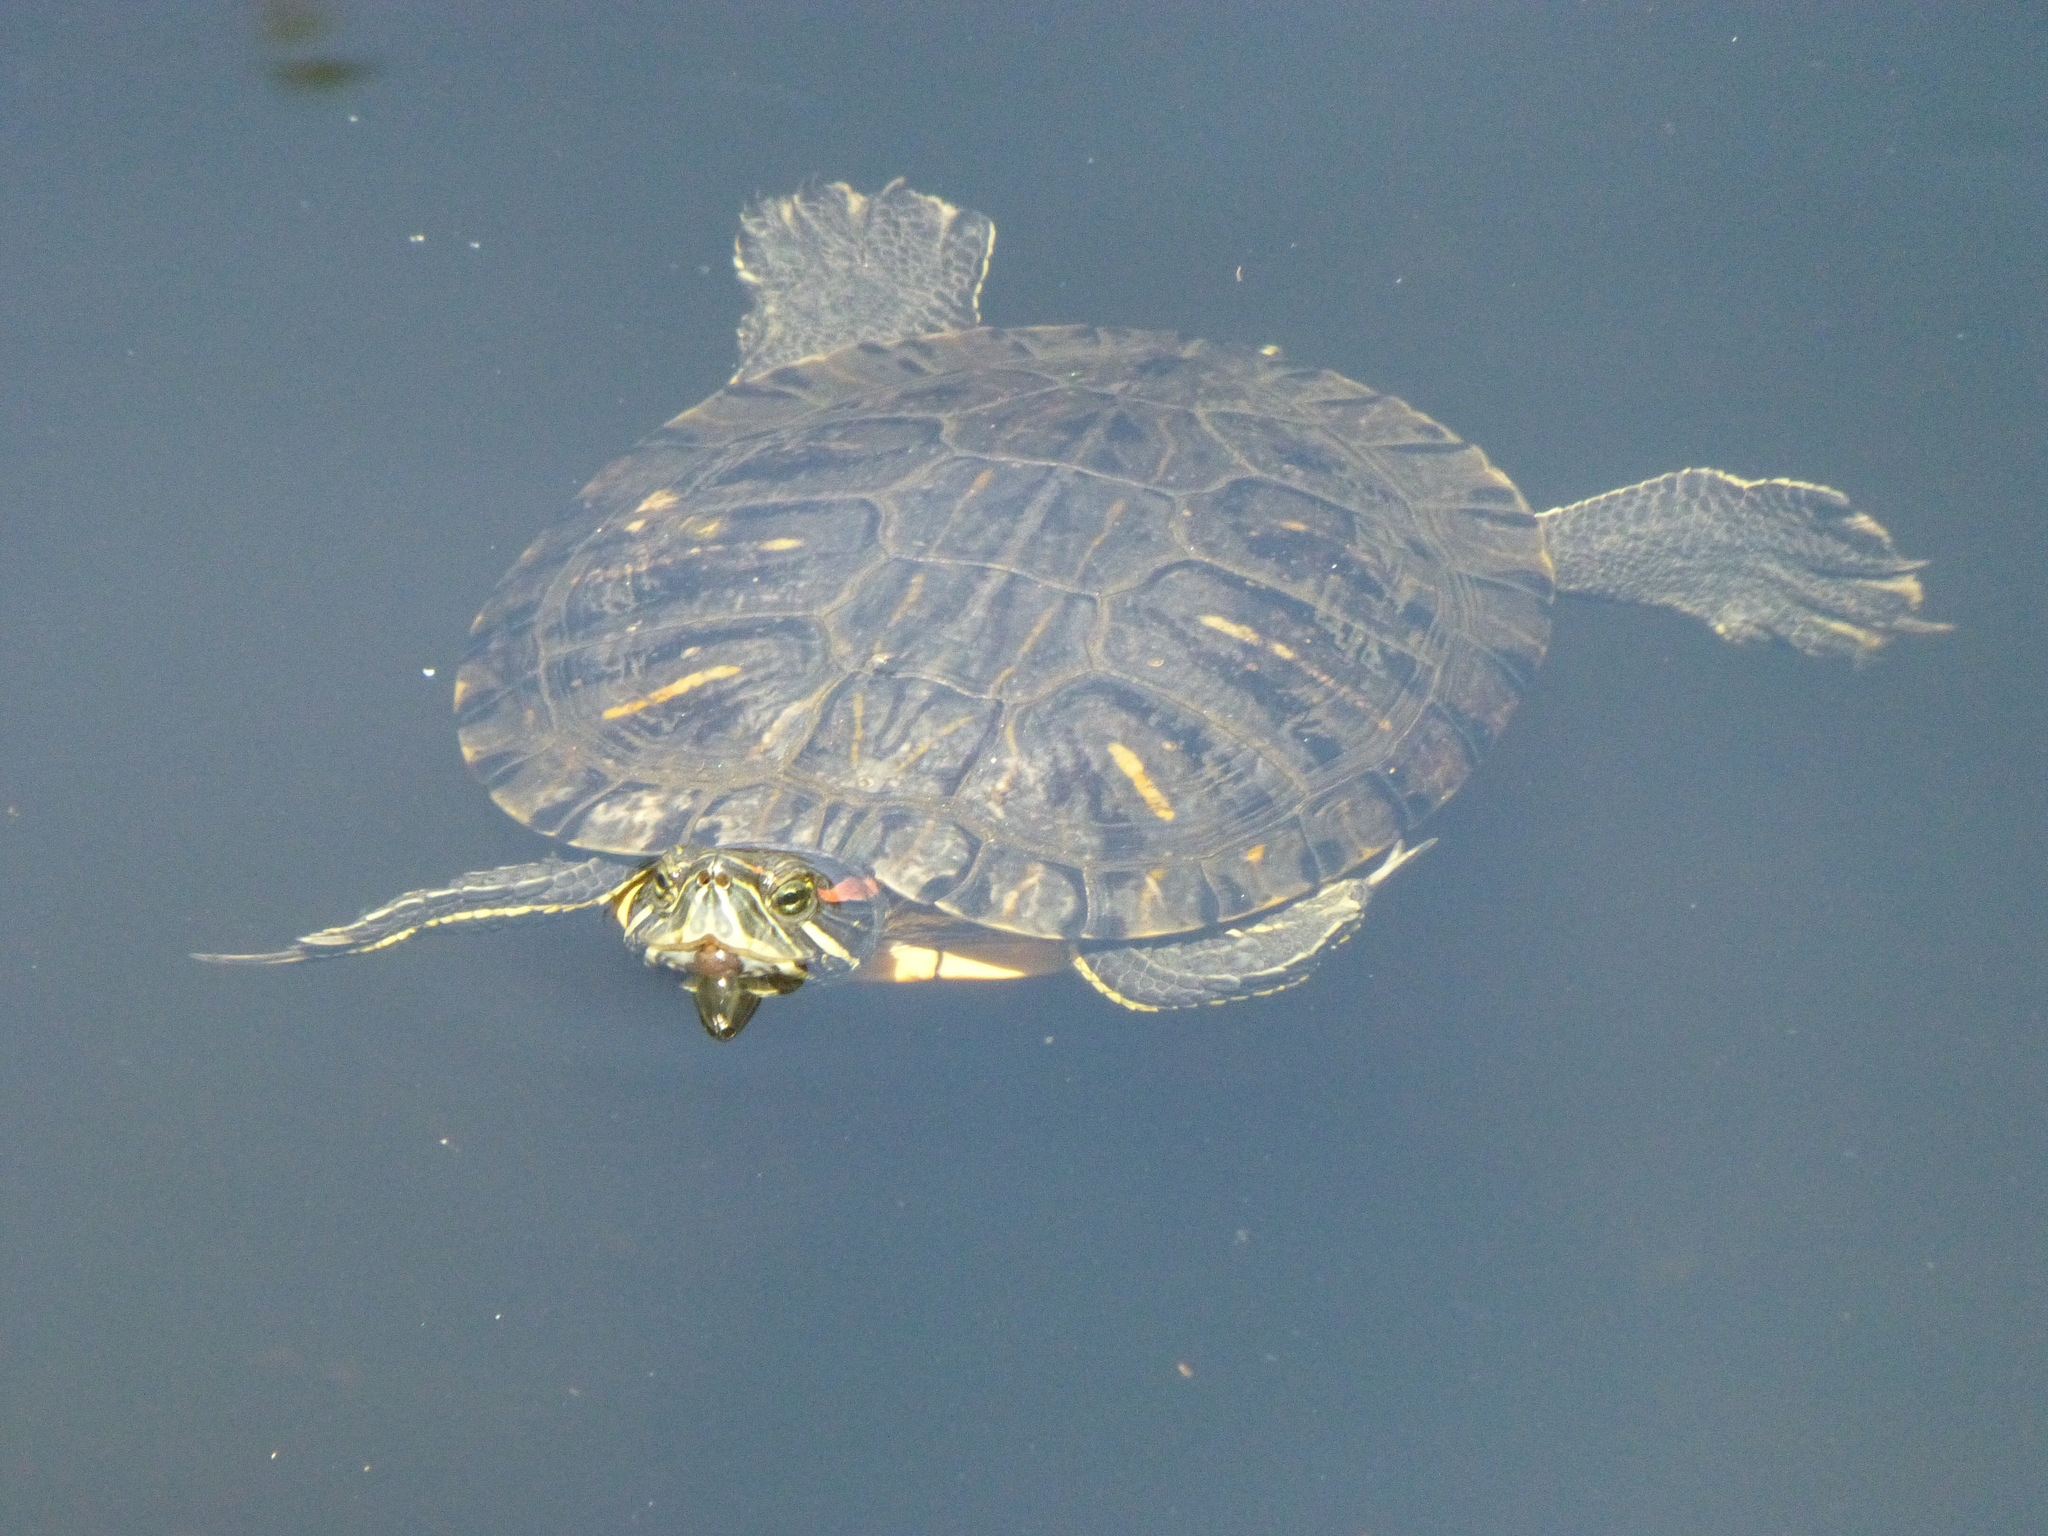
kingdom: Animalia
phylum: Chordata
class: Testudines
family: Emydidae
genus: Trachemys
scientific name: Trachemys scripta
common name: Slider
